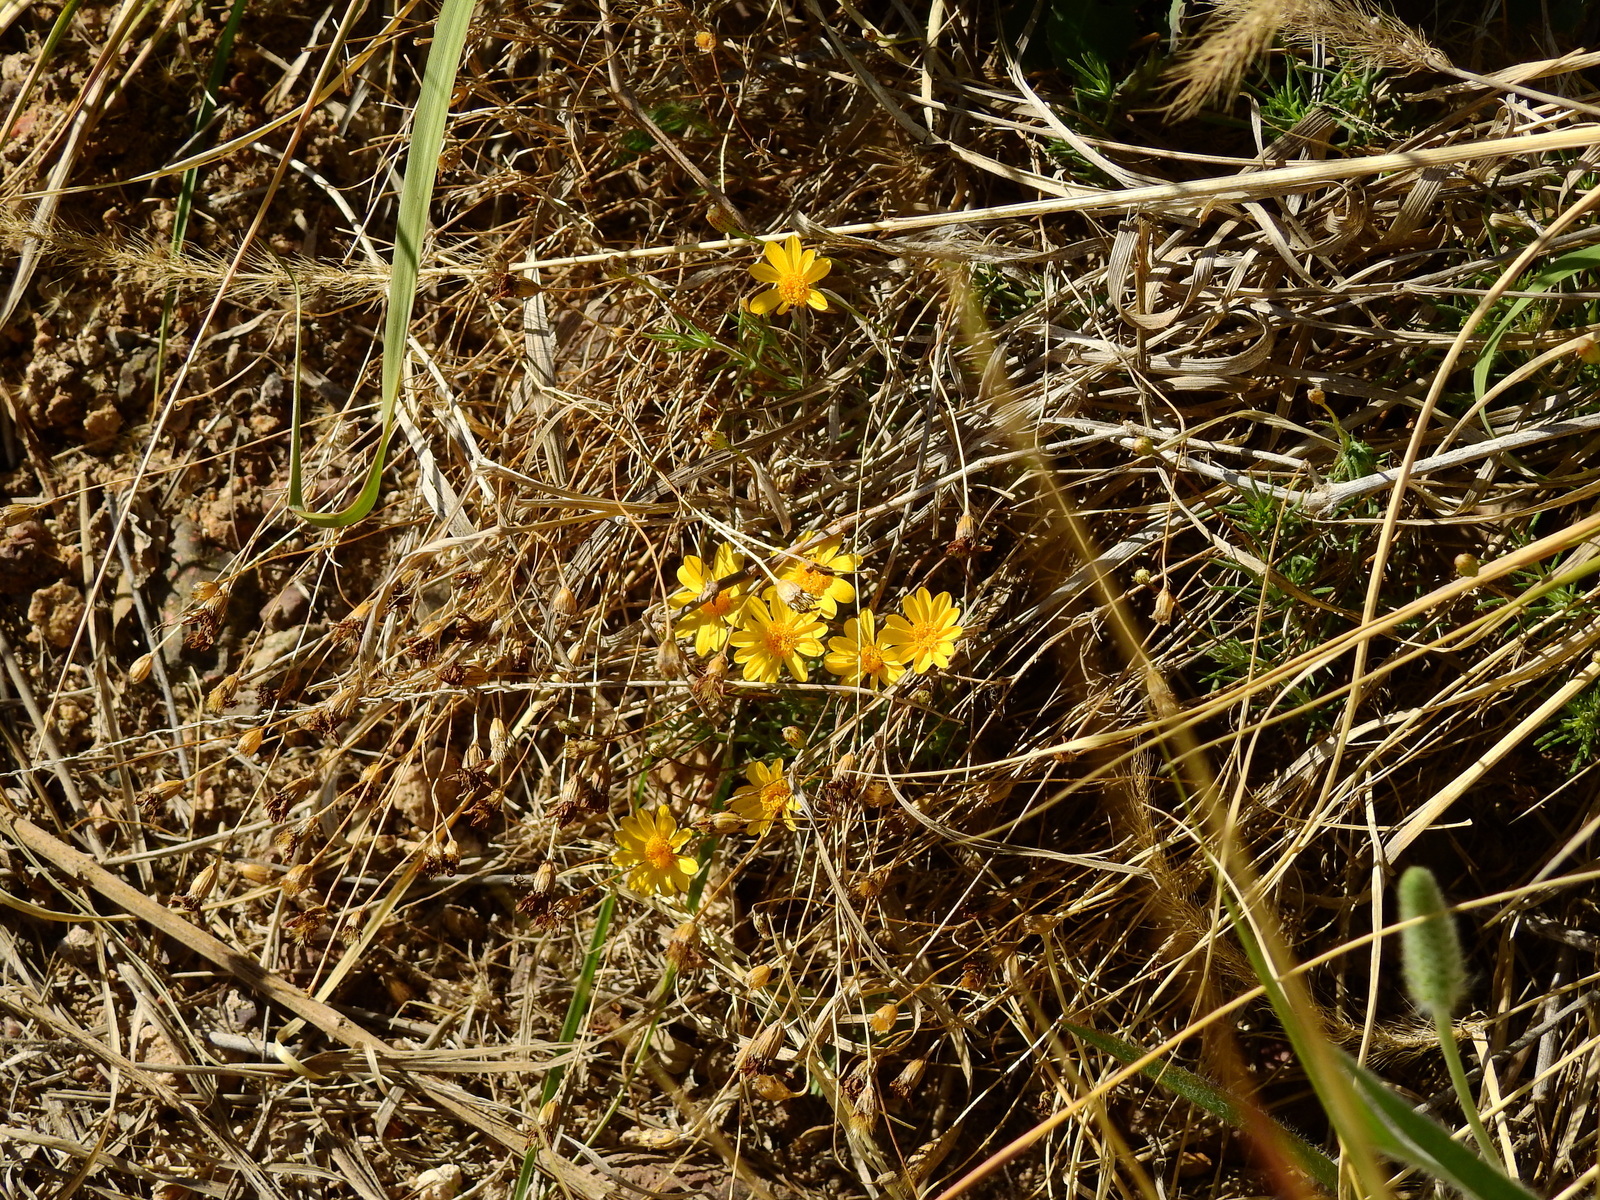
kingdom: Plantae
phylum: Tracheophyta
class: Magnoliopsida
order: Asterales
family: Asteraceae
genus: Thymophylla
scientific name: Thymophylla pentachaeta
